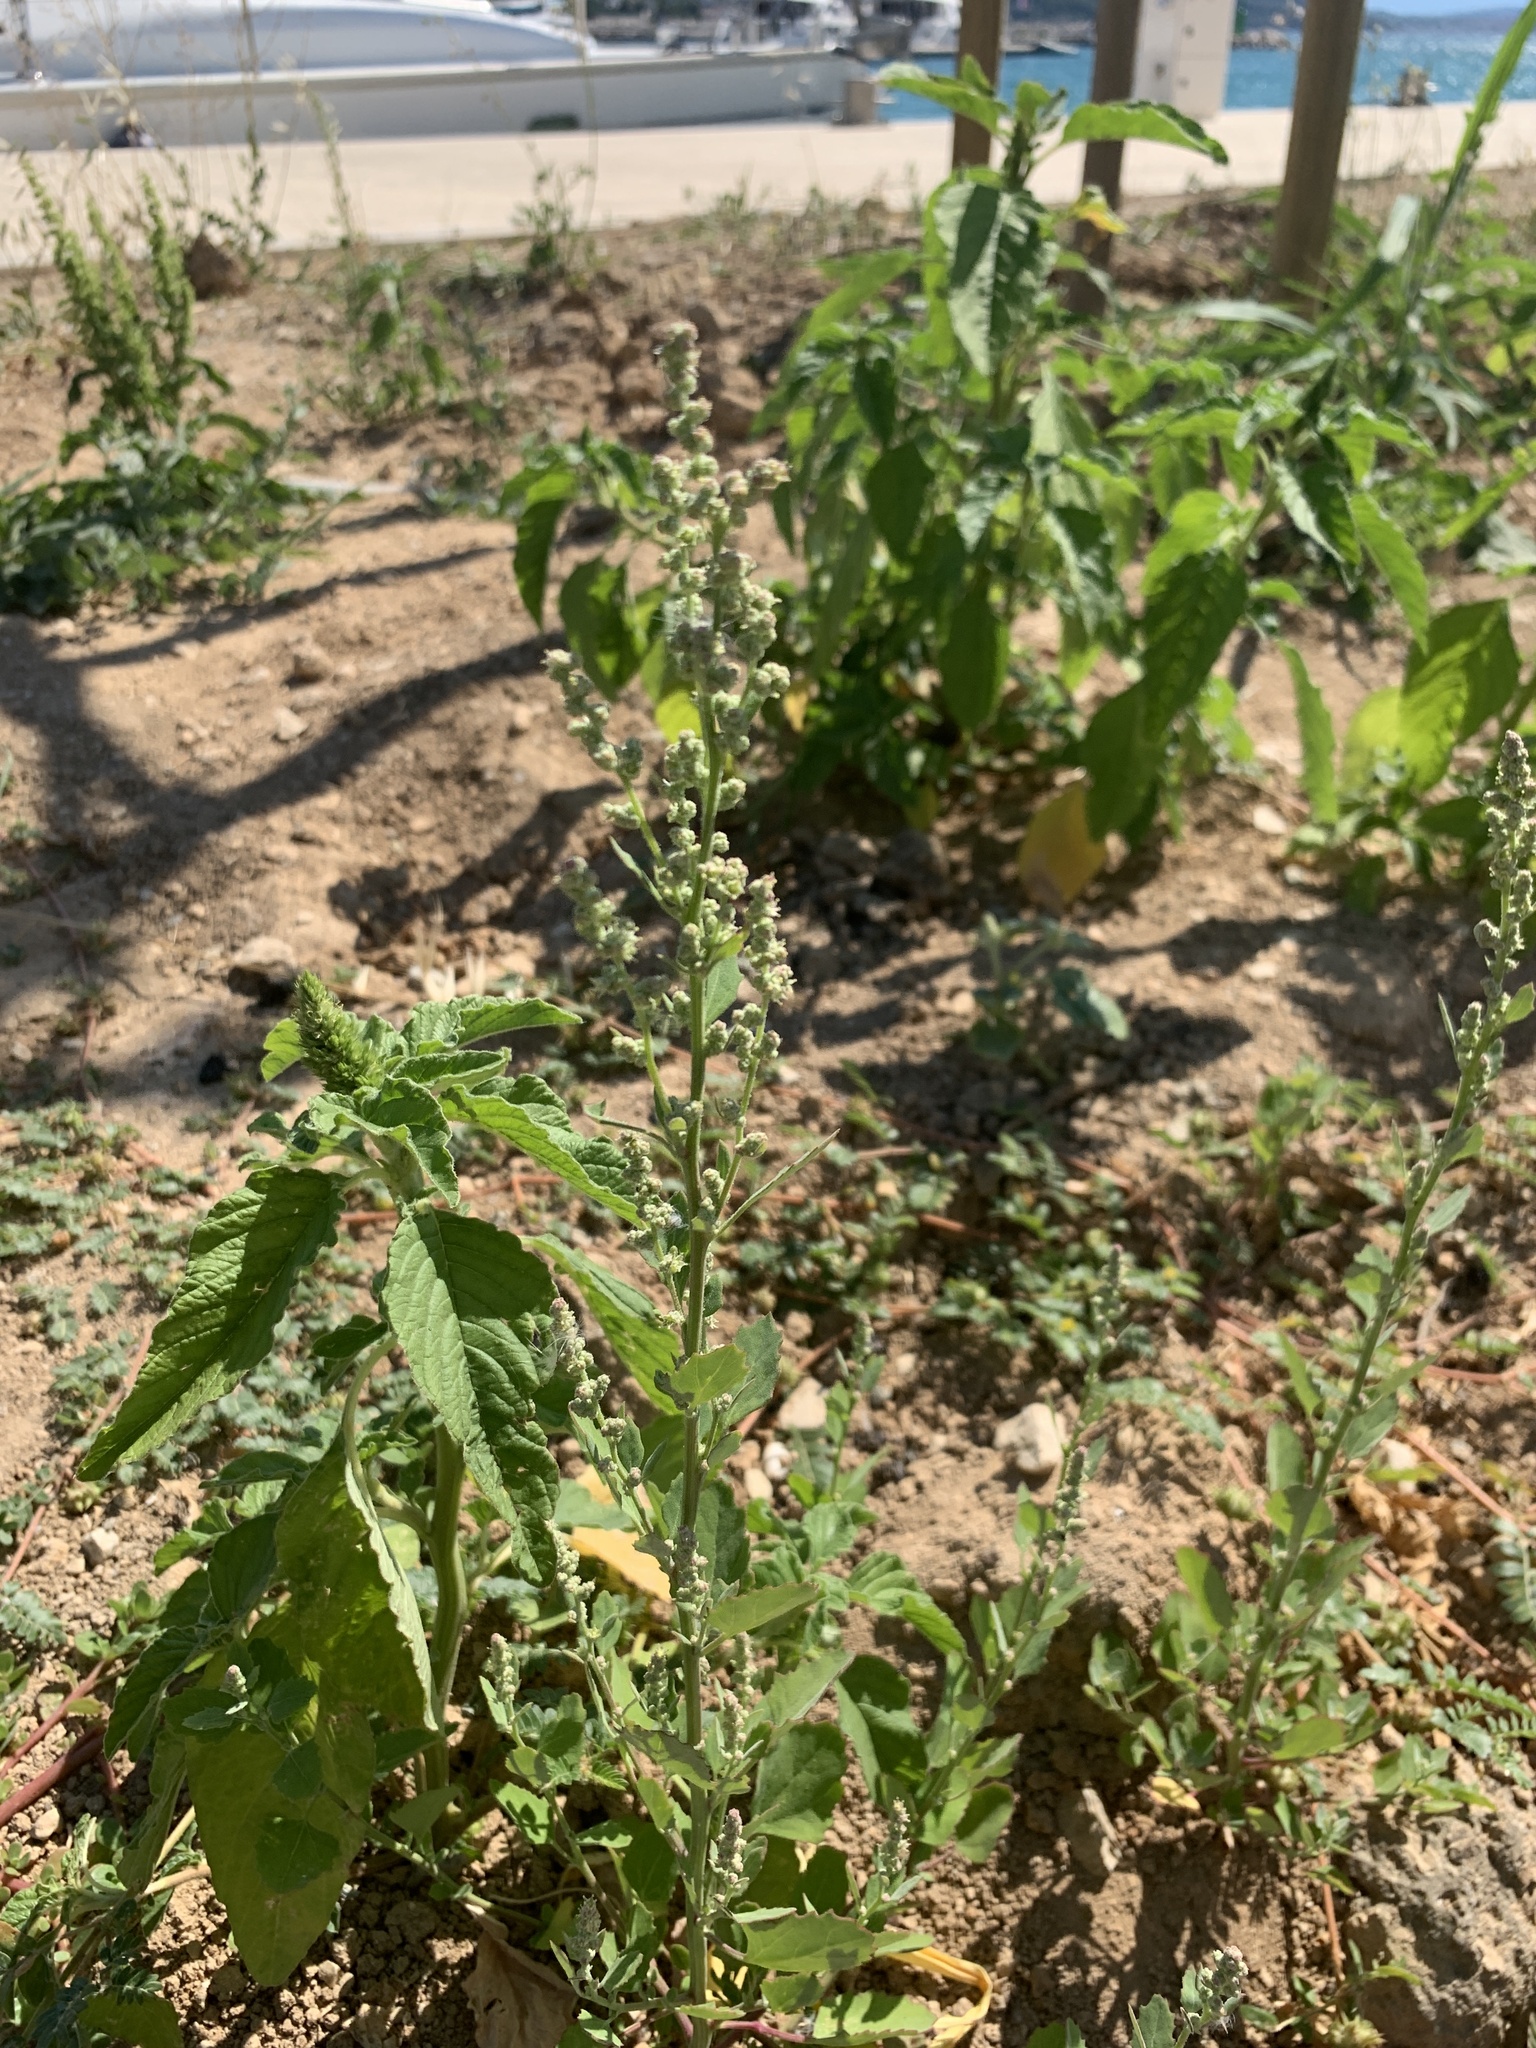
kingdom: Plantae
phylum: Tracheophyta
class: Magnoliopsida
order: Caryophyllales
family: Amaranthaceae
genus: Chenopodium
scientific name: Chenopodium album
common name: Fat-hen
